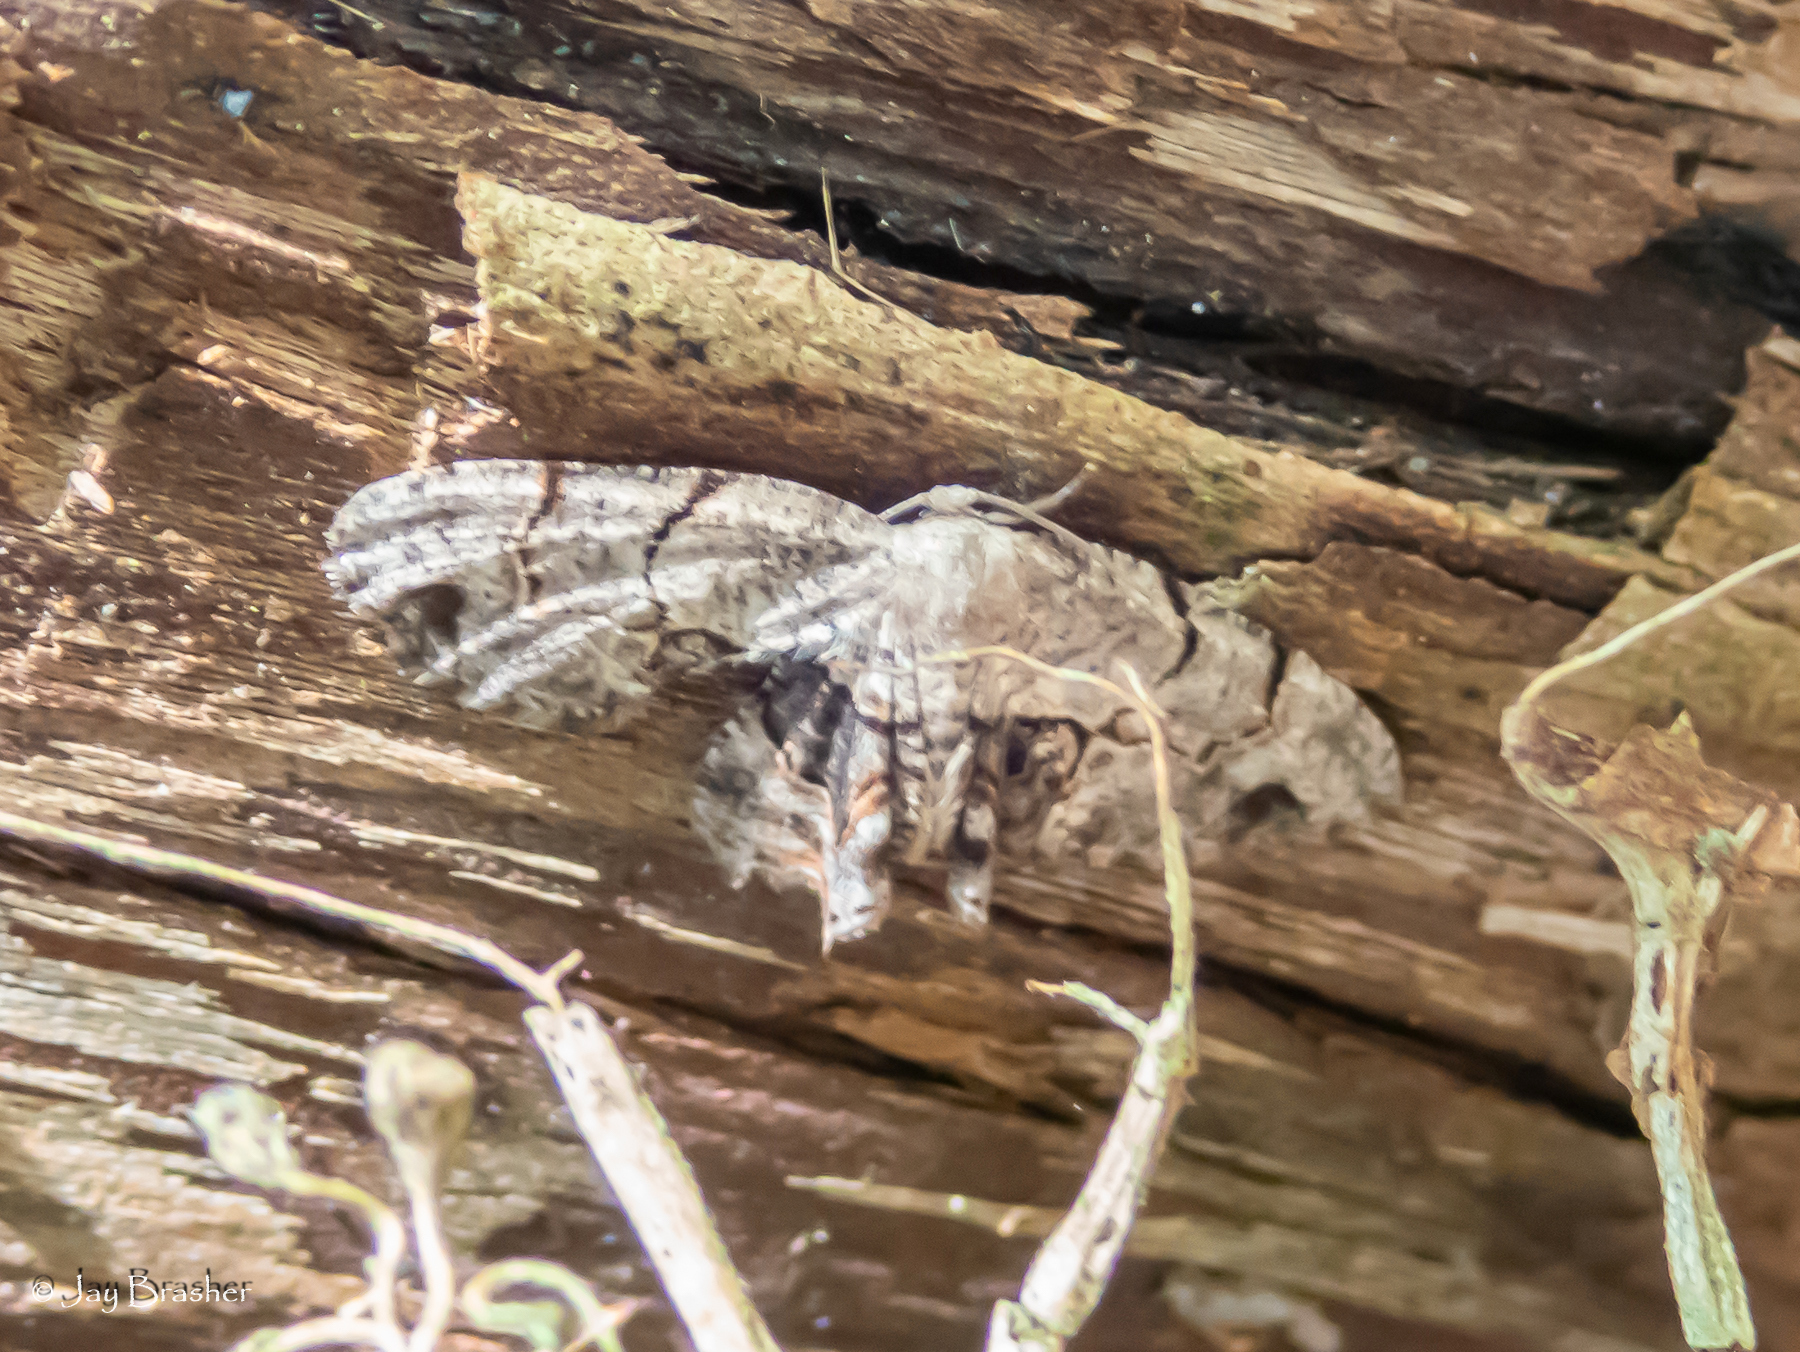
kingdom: Animalia
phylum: Arthropoda
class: Insecta
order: Lepidoptera
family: Uraniidae
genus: Epiplema
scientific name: Epiplema Callizzia amorata
